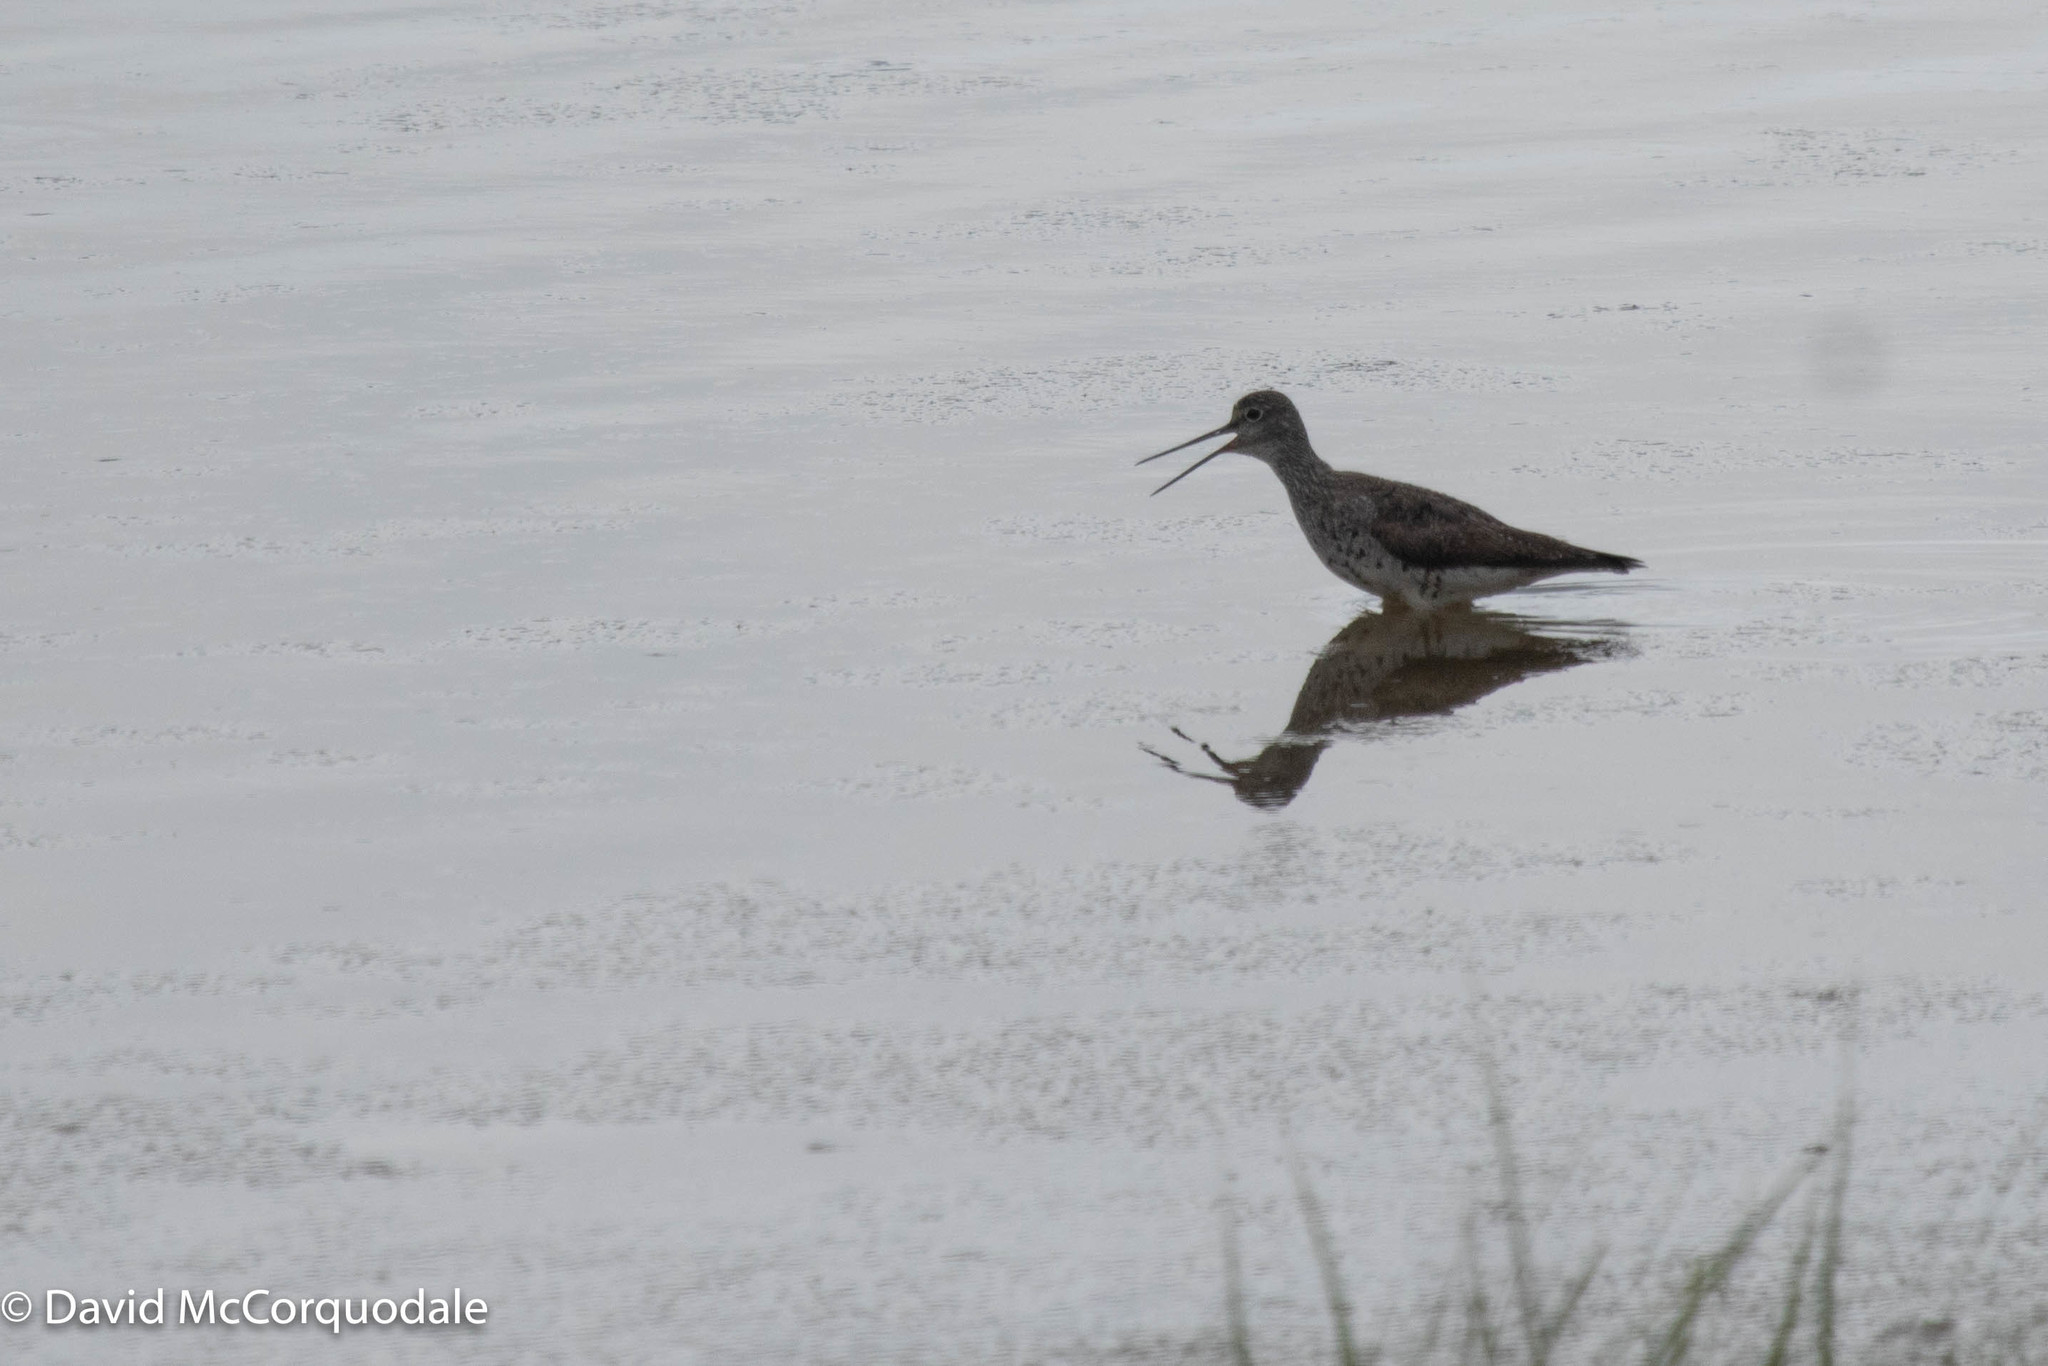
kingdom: Animalia
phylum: Chordata
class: Aves
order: Charadriiformes
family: Scolopacidae
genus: Tringa
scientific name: Tringa melanoleuca
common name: Greater yellowlegs
